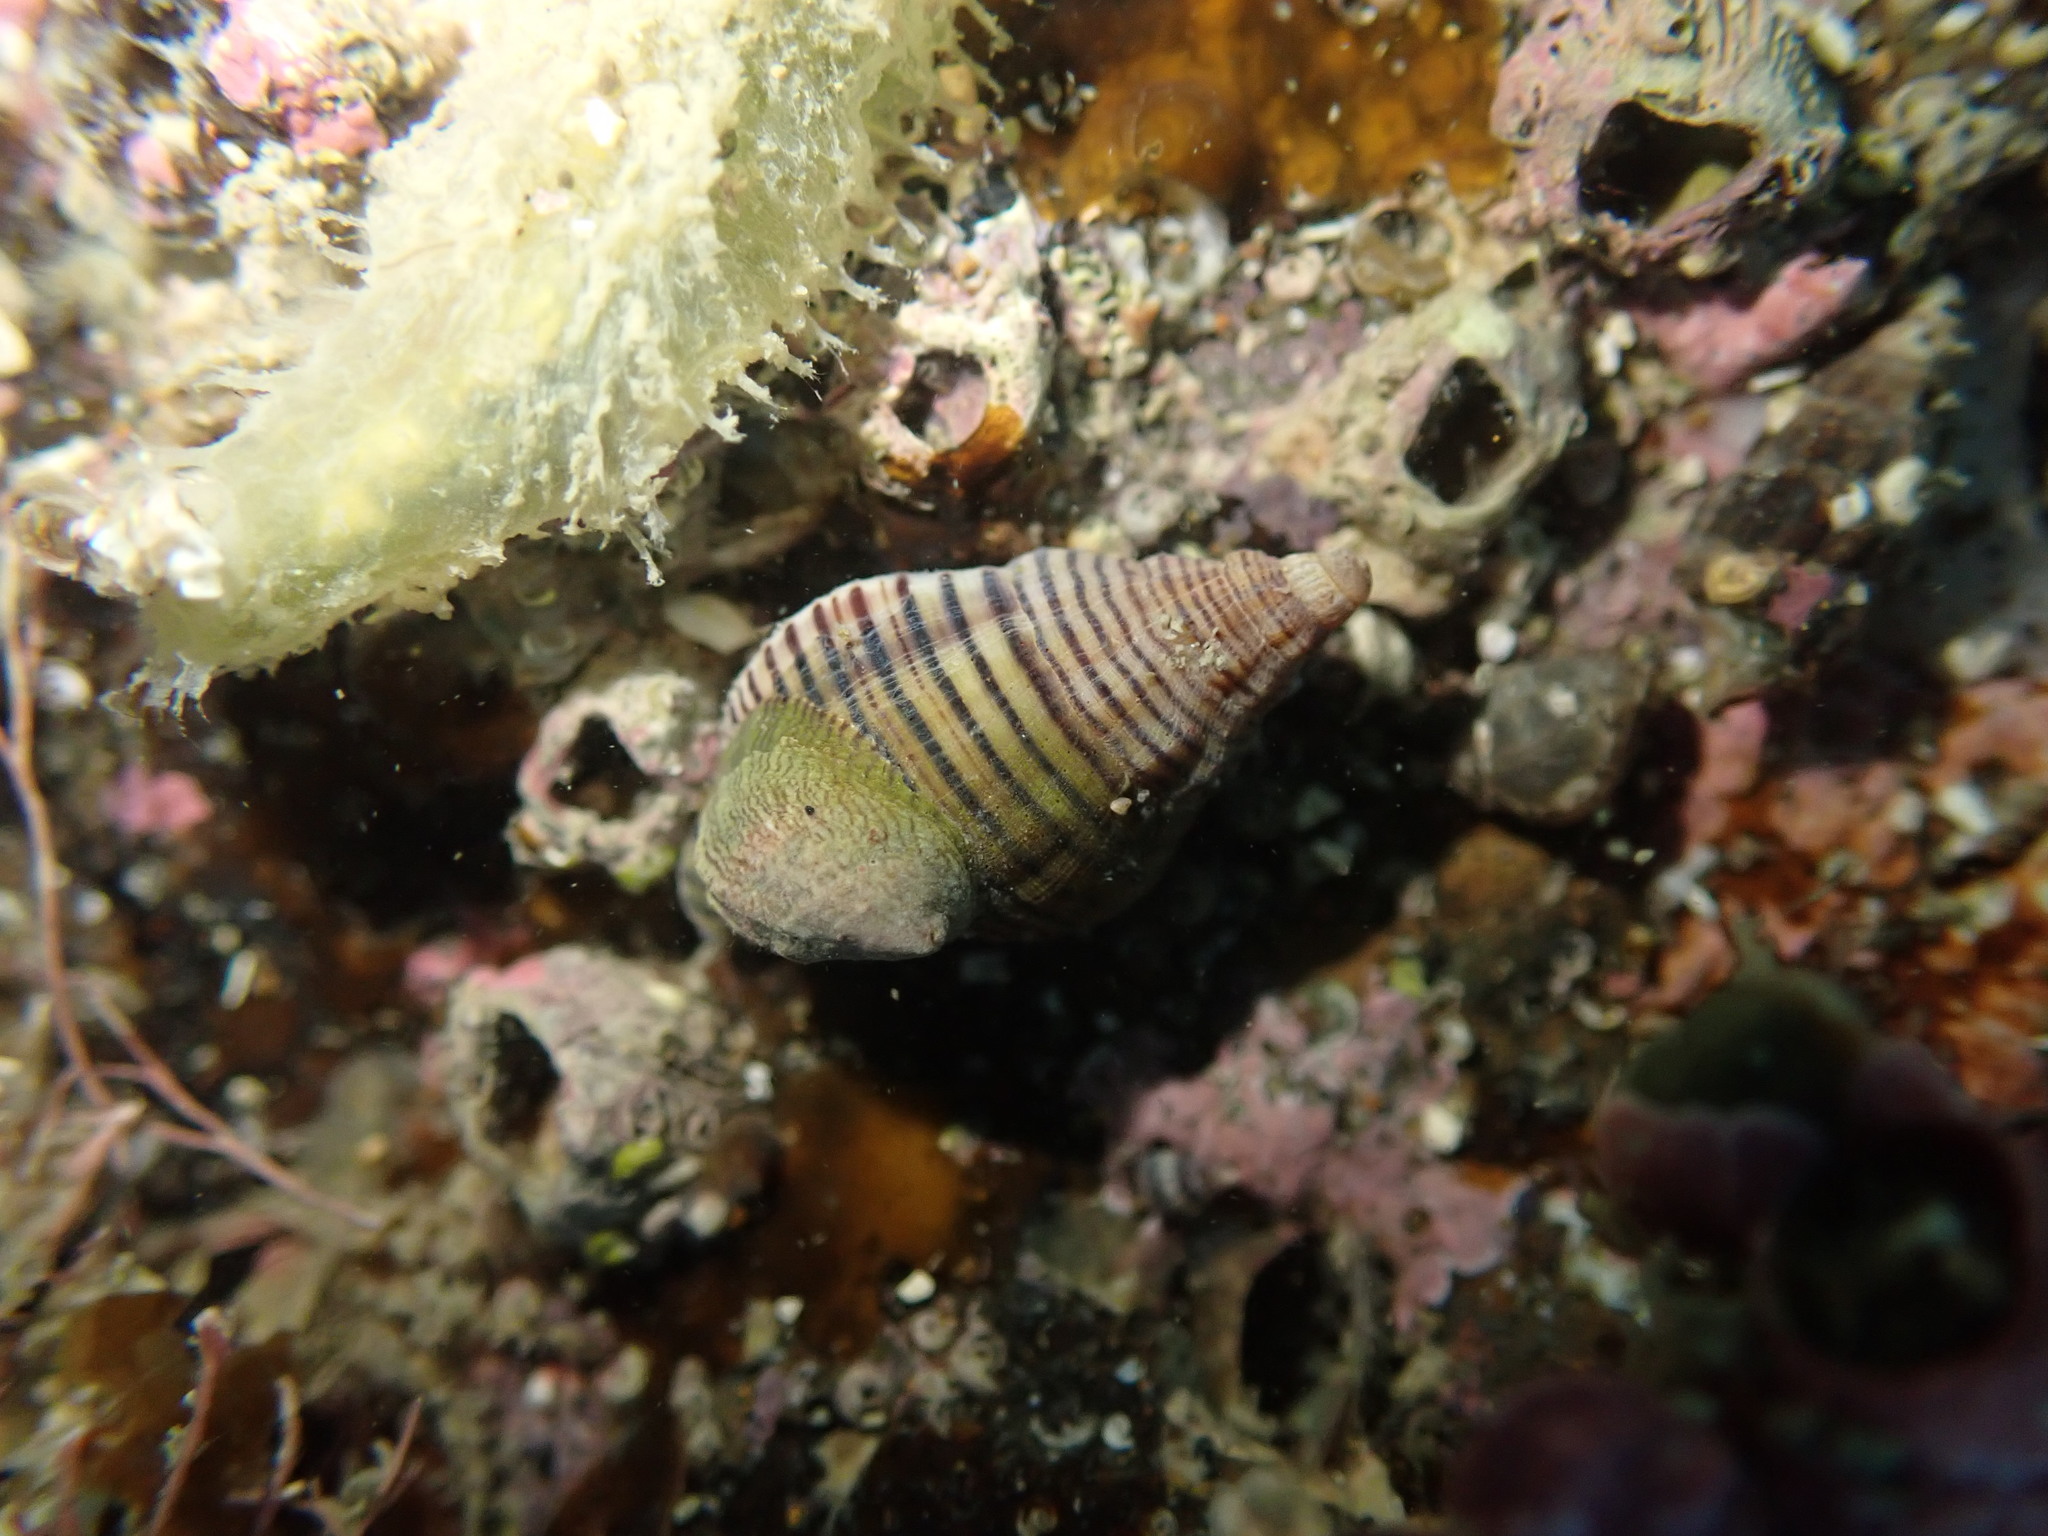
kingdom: Animalia
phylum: Mollusca
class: Gastropoda
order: Neogastropoda
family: Tudiclidae
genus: Buccinulum
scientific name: Buccinulum linea
